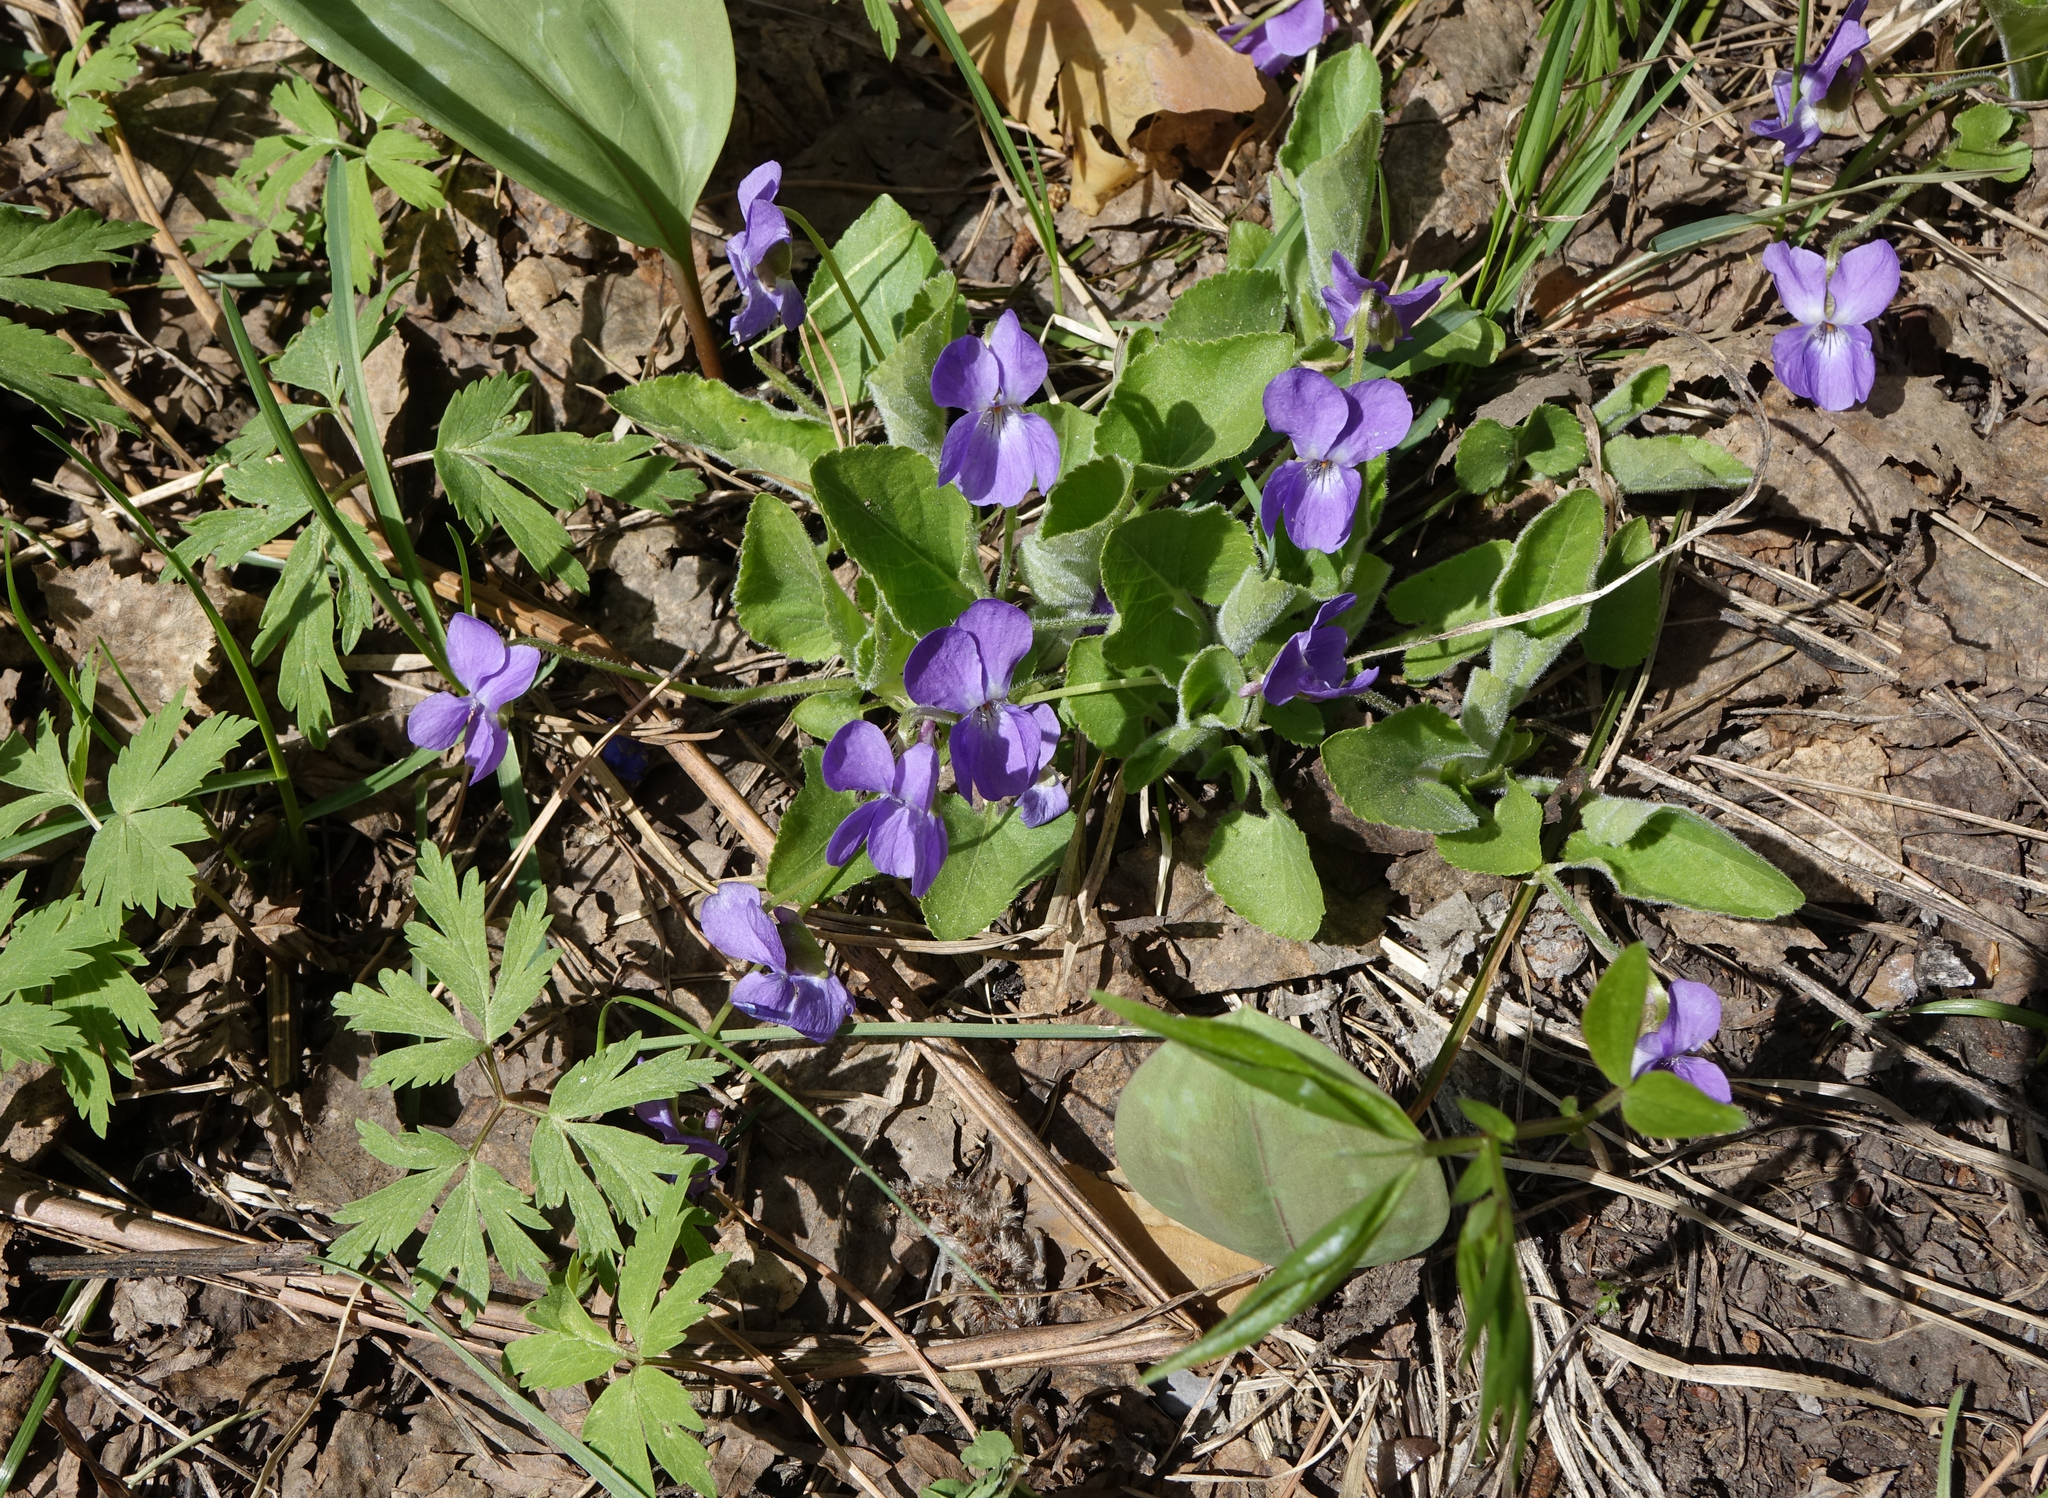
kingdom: Plantae
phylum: Tracheophyta
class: Magnoliopsida
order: Malpighiales
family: Violaceae
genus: Viola
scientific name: Viola hirta
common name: Hairy violet
